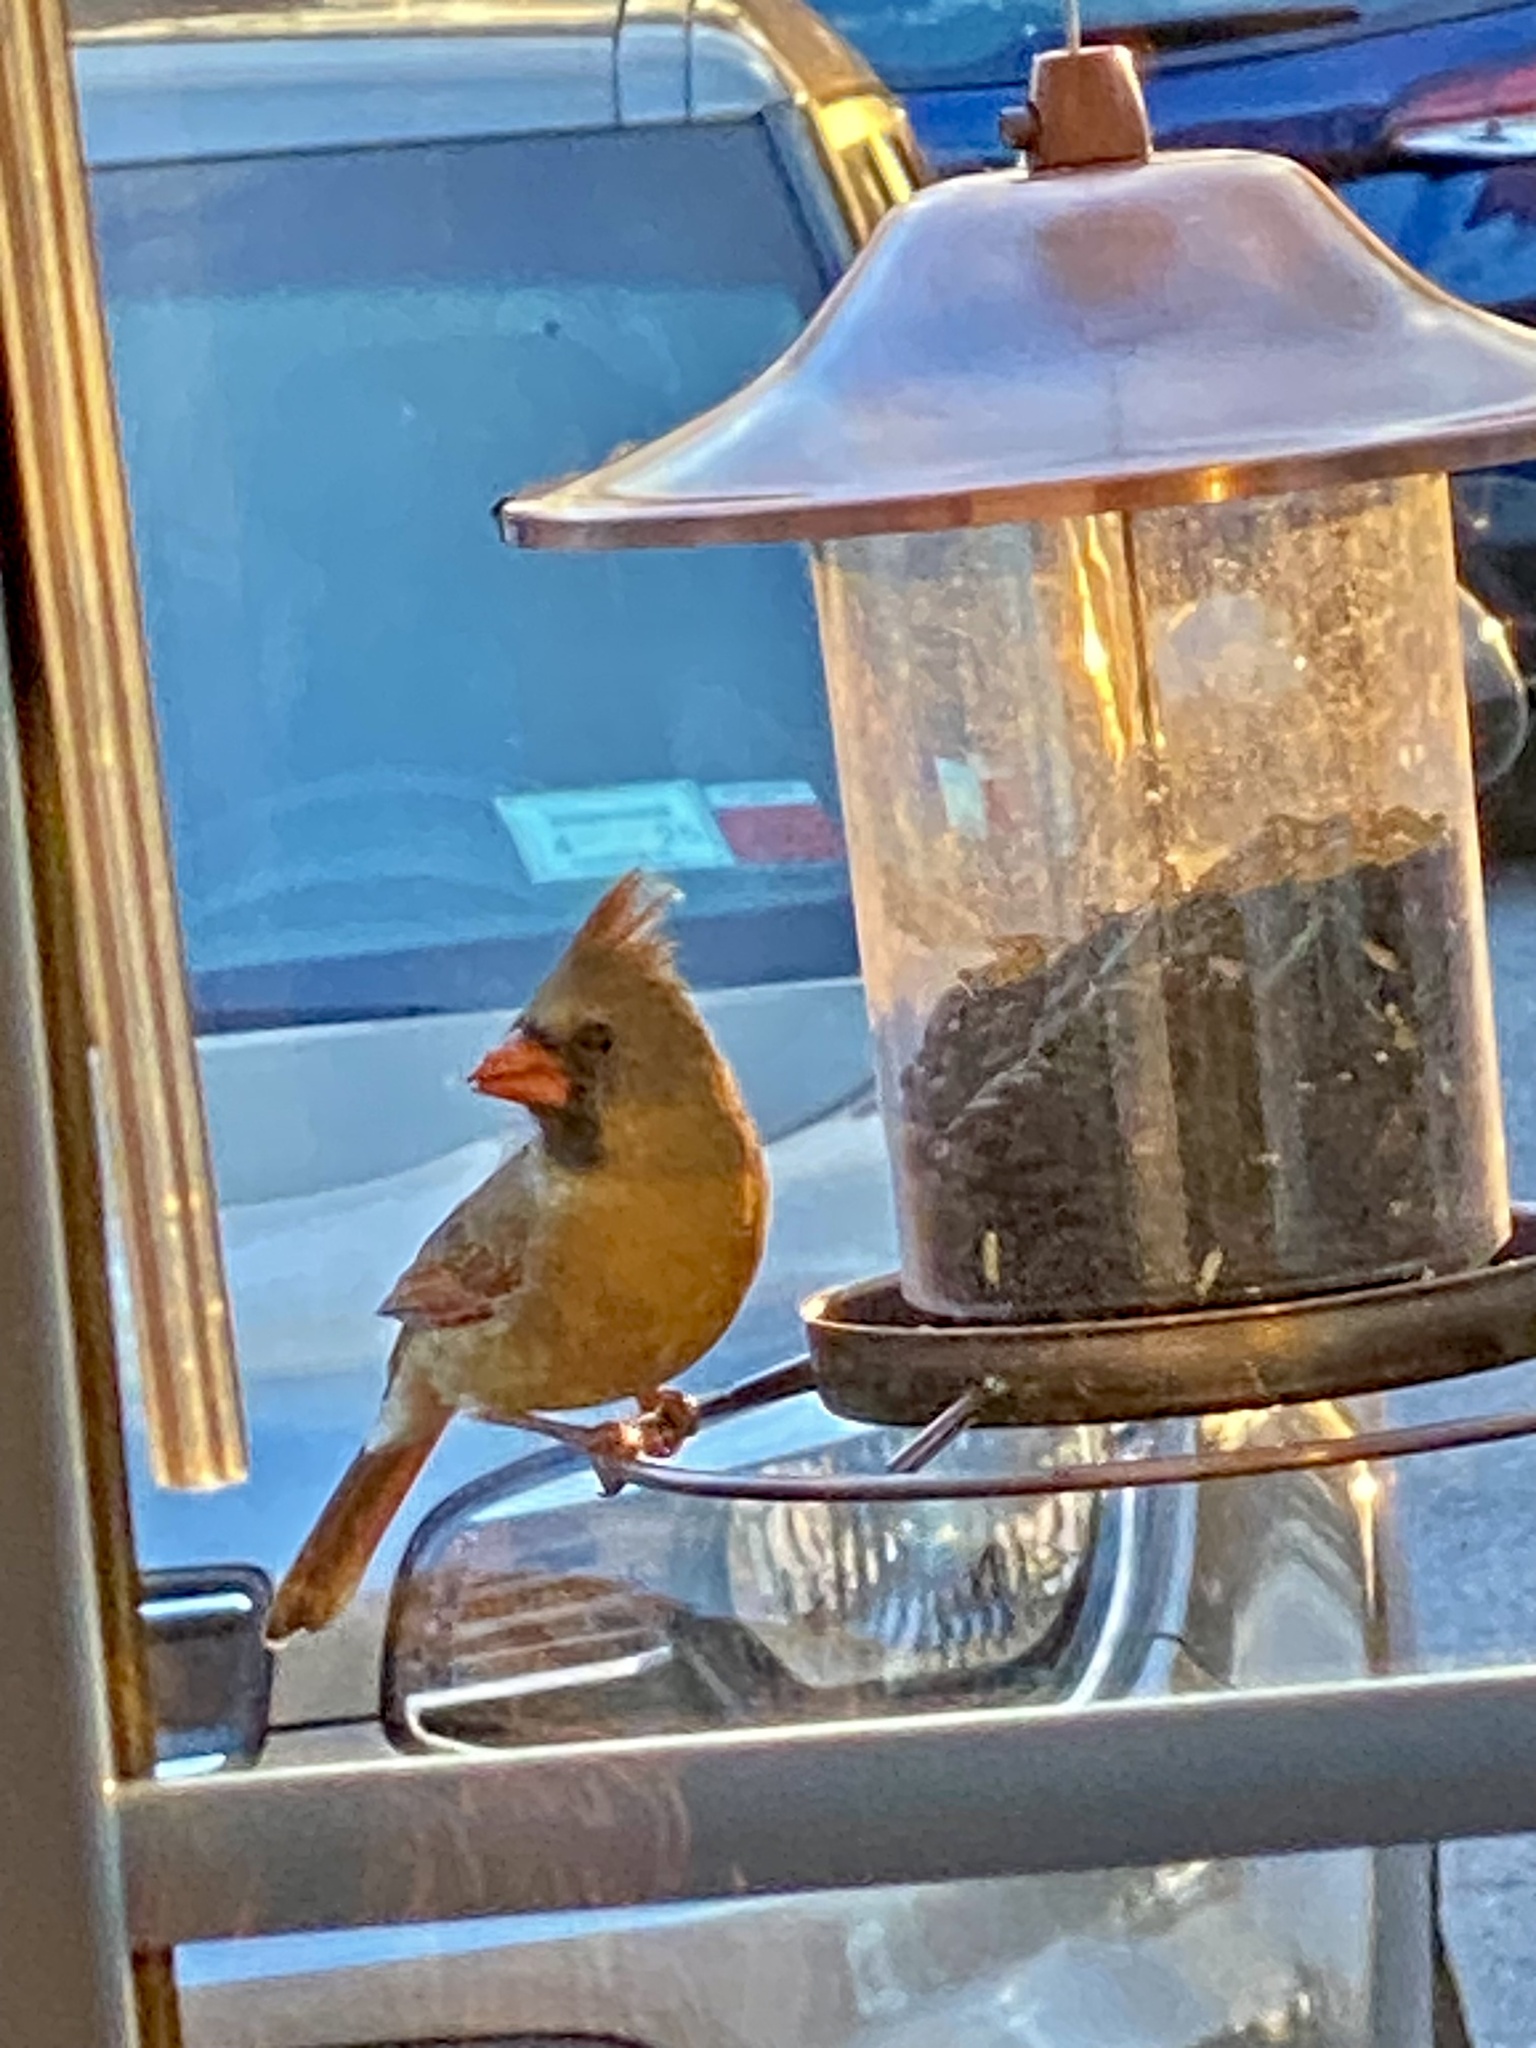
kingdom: Animalia
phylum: Chordata
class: Aves
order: Passeriformes
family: Cardinalidae
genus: Cardinalis
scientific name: Cardinalis cardinalis
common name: Northern cardinal
